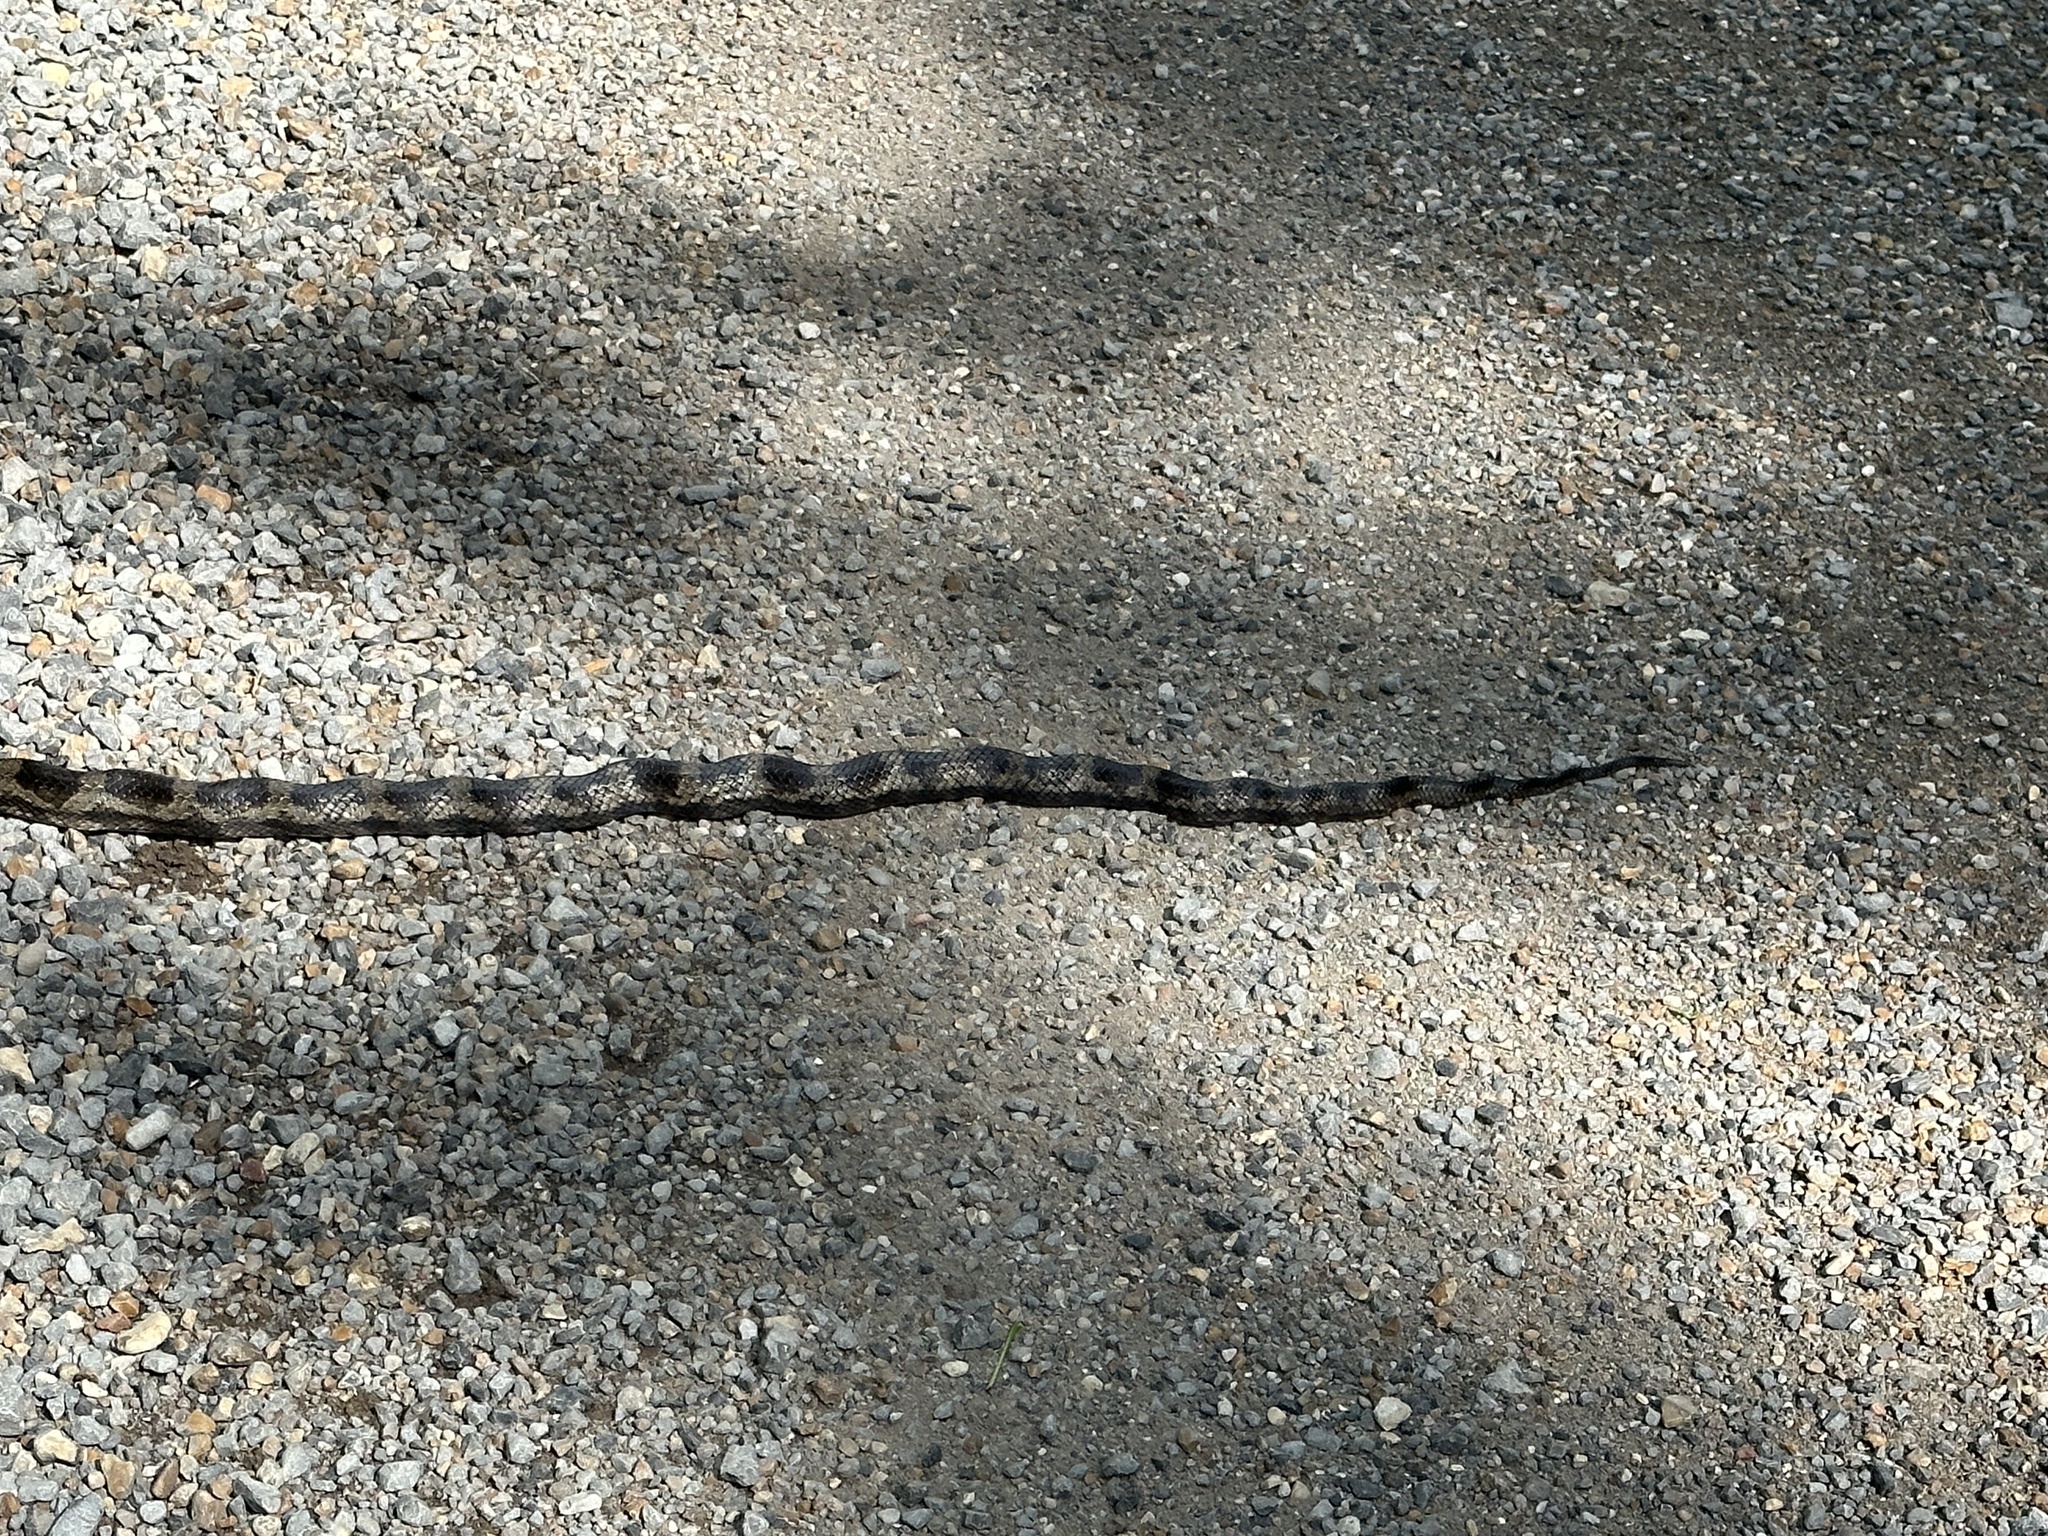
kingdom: Animalia
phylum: Chordata
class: Squamata
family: Colubridae
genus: Pantherophis
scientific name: Pantherophis obsoletus
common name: Black rat snake
